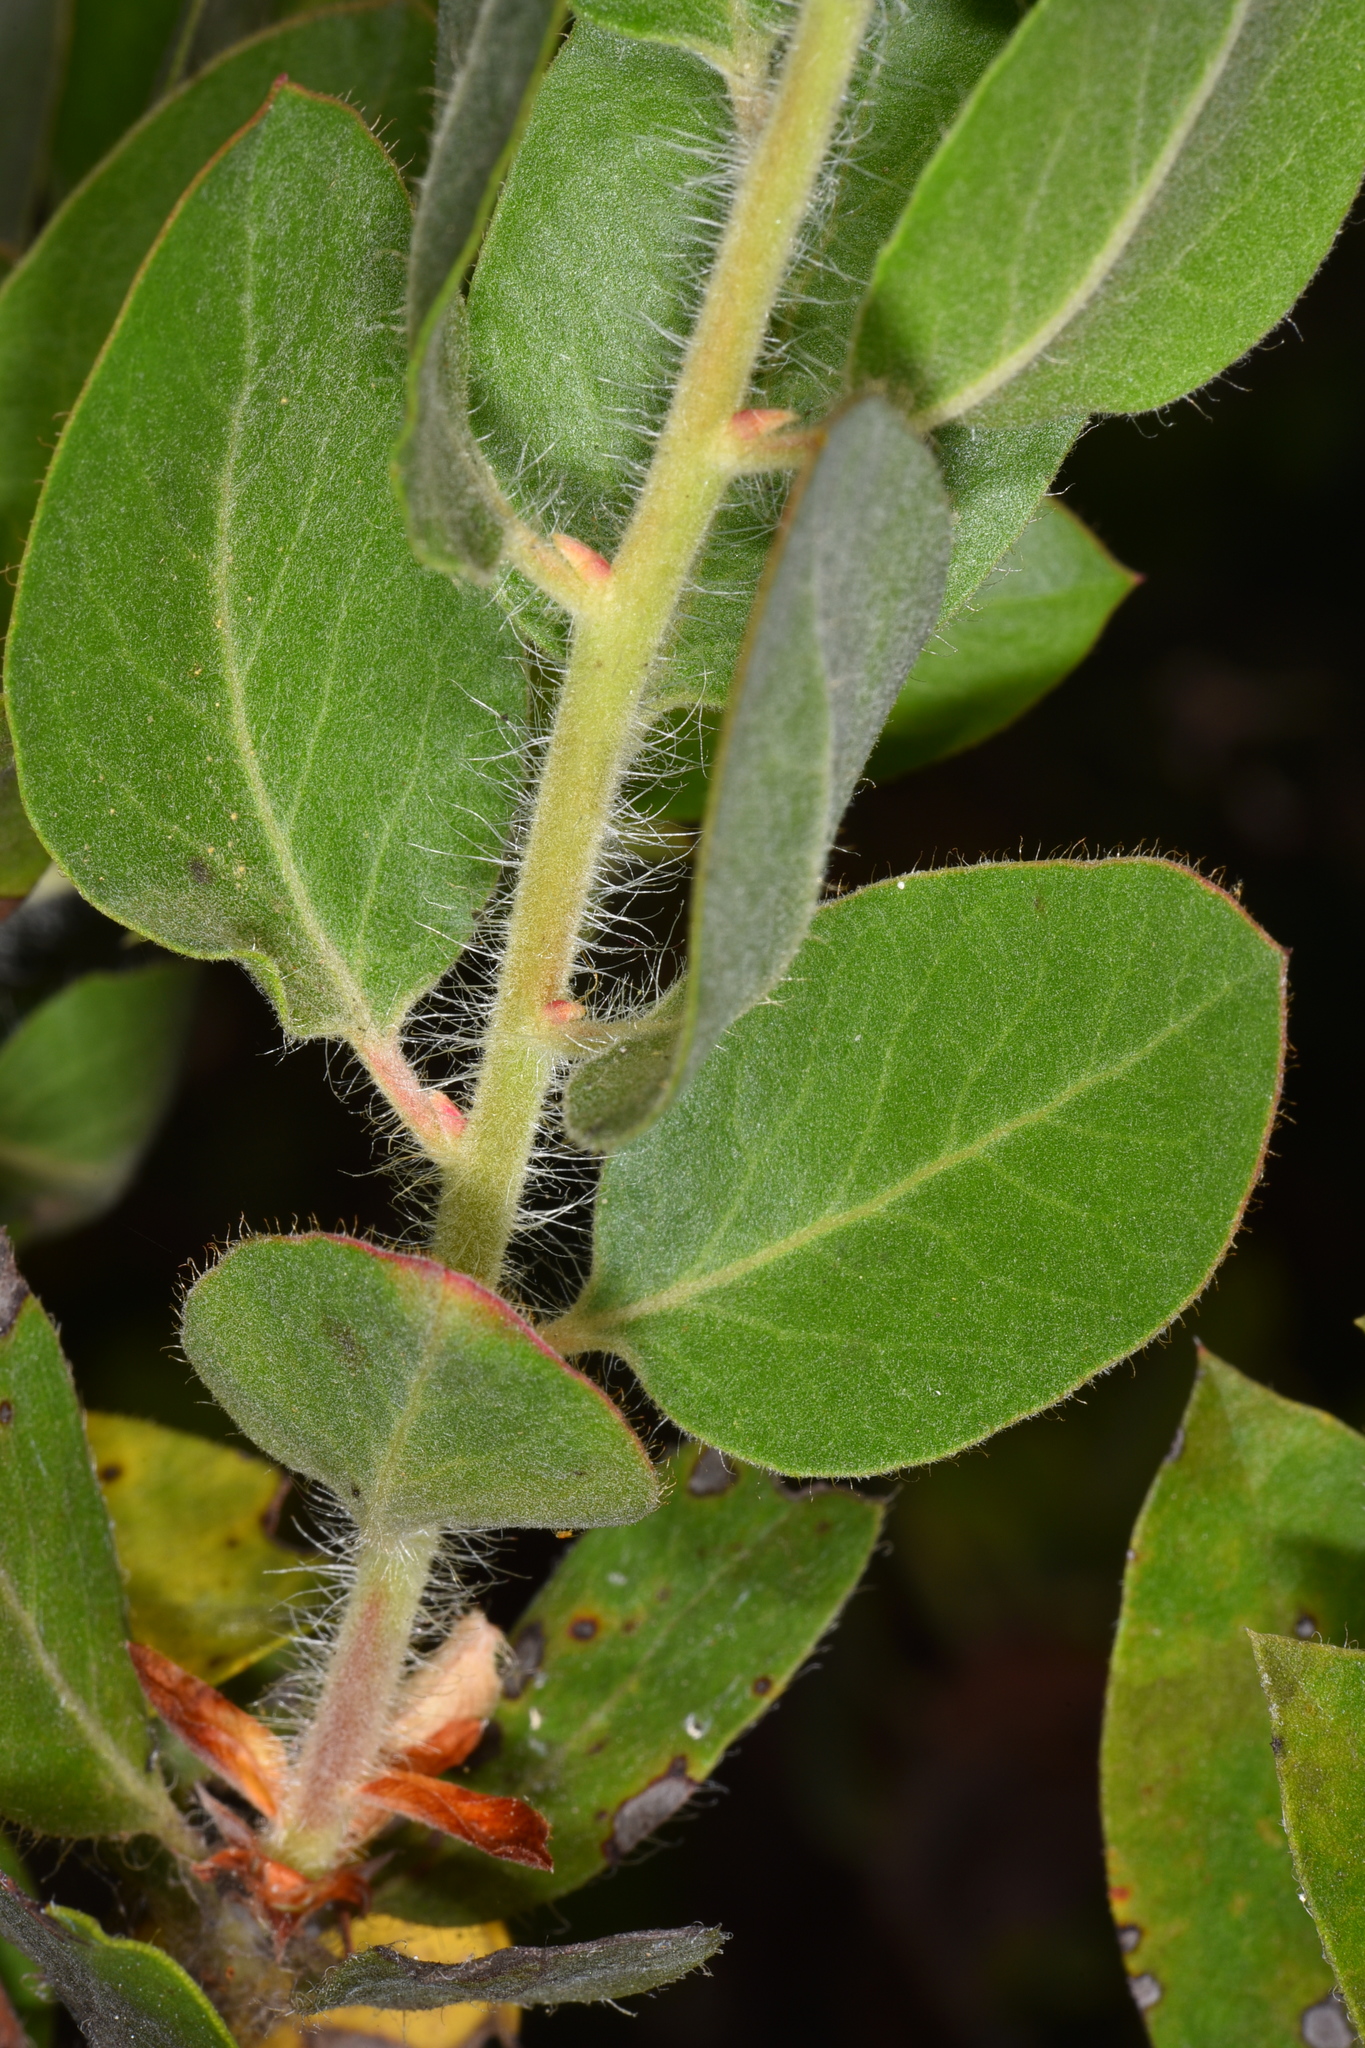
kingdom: Plantae
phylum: Tracheophyta
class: Magnoliopsida
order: Ericales
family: Ericaceae
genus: Arctostaphylos
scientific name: Arctostaphylos columbiana
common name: Bristly bearberry
